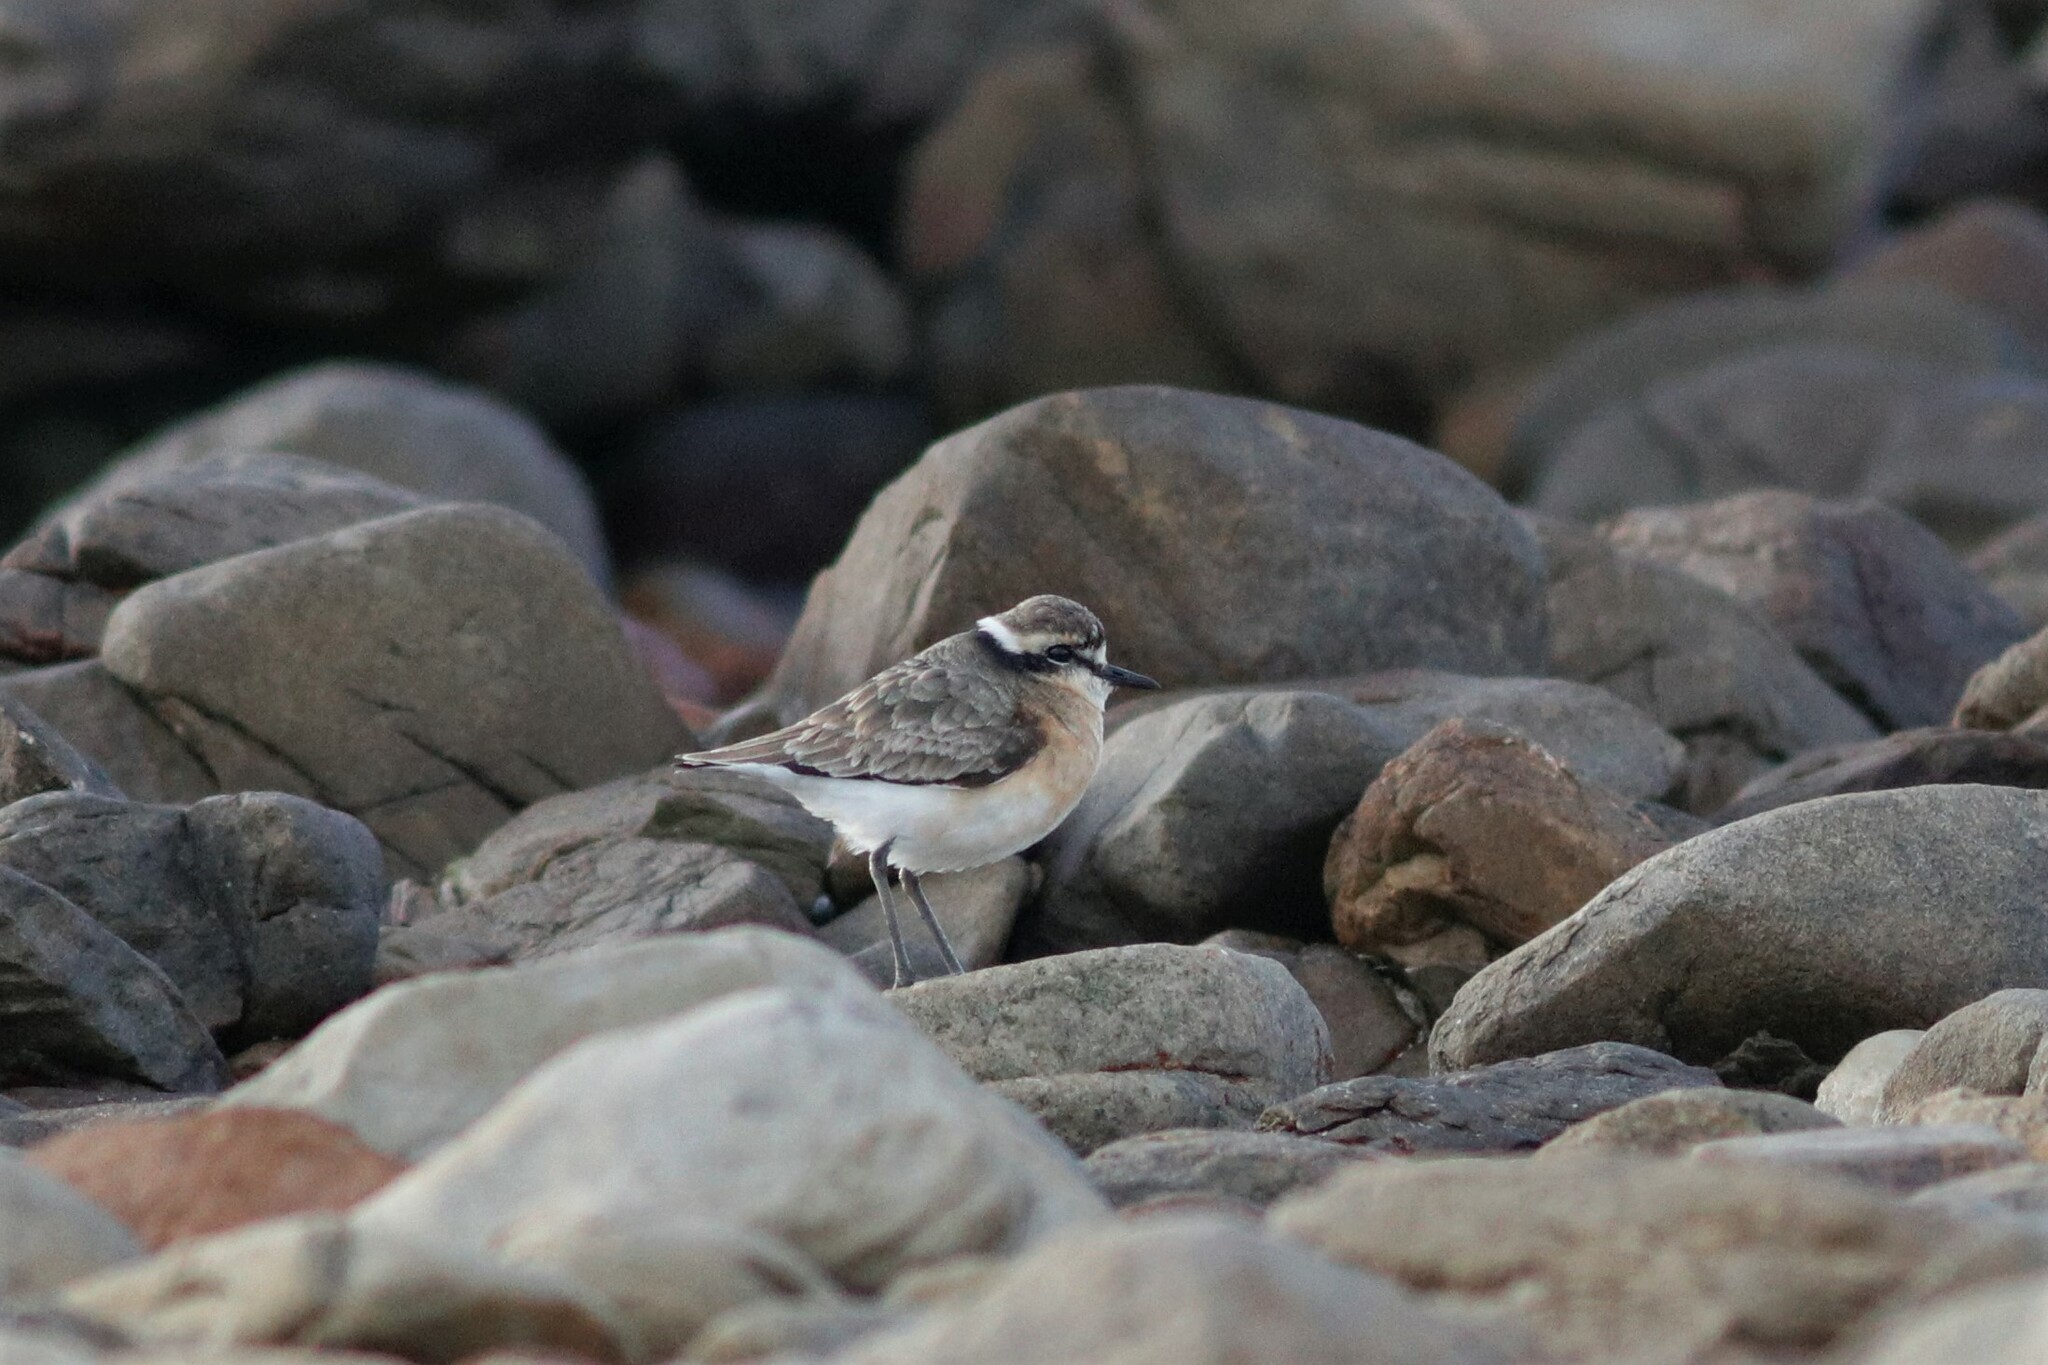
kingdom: Animalia
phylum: Chordata
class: Aves
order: Charadriiformes
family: Charadriidae
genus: Anarhynchus
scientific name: Anarhynchus
